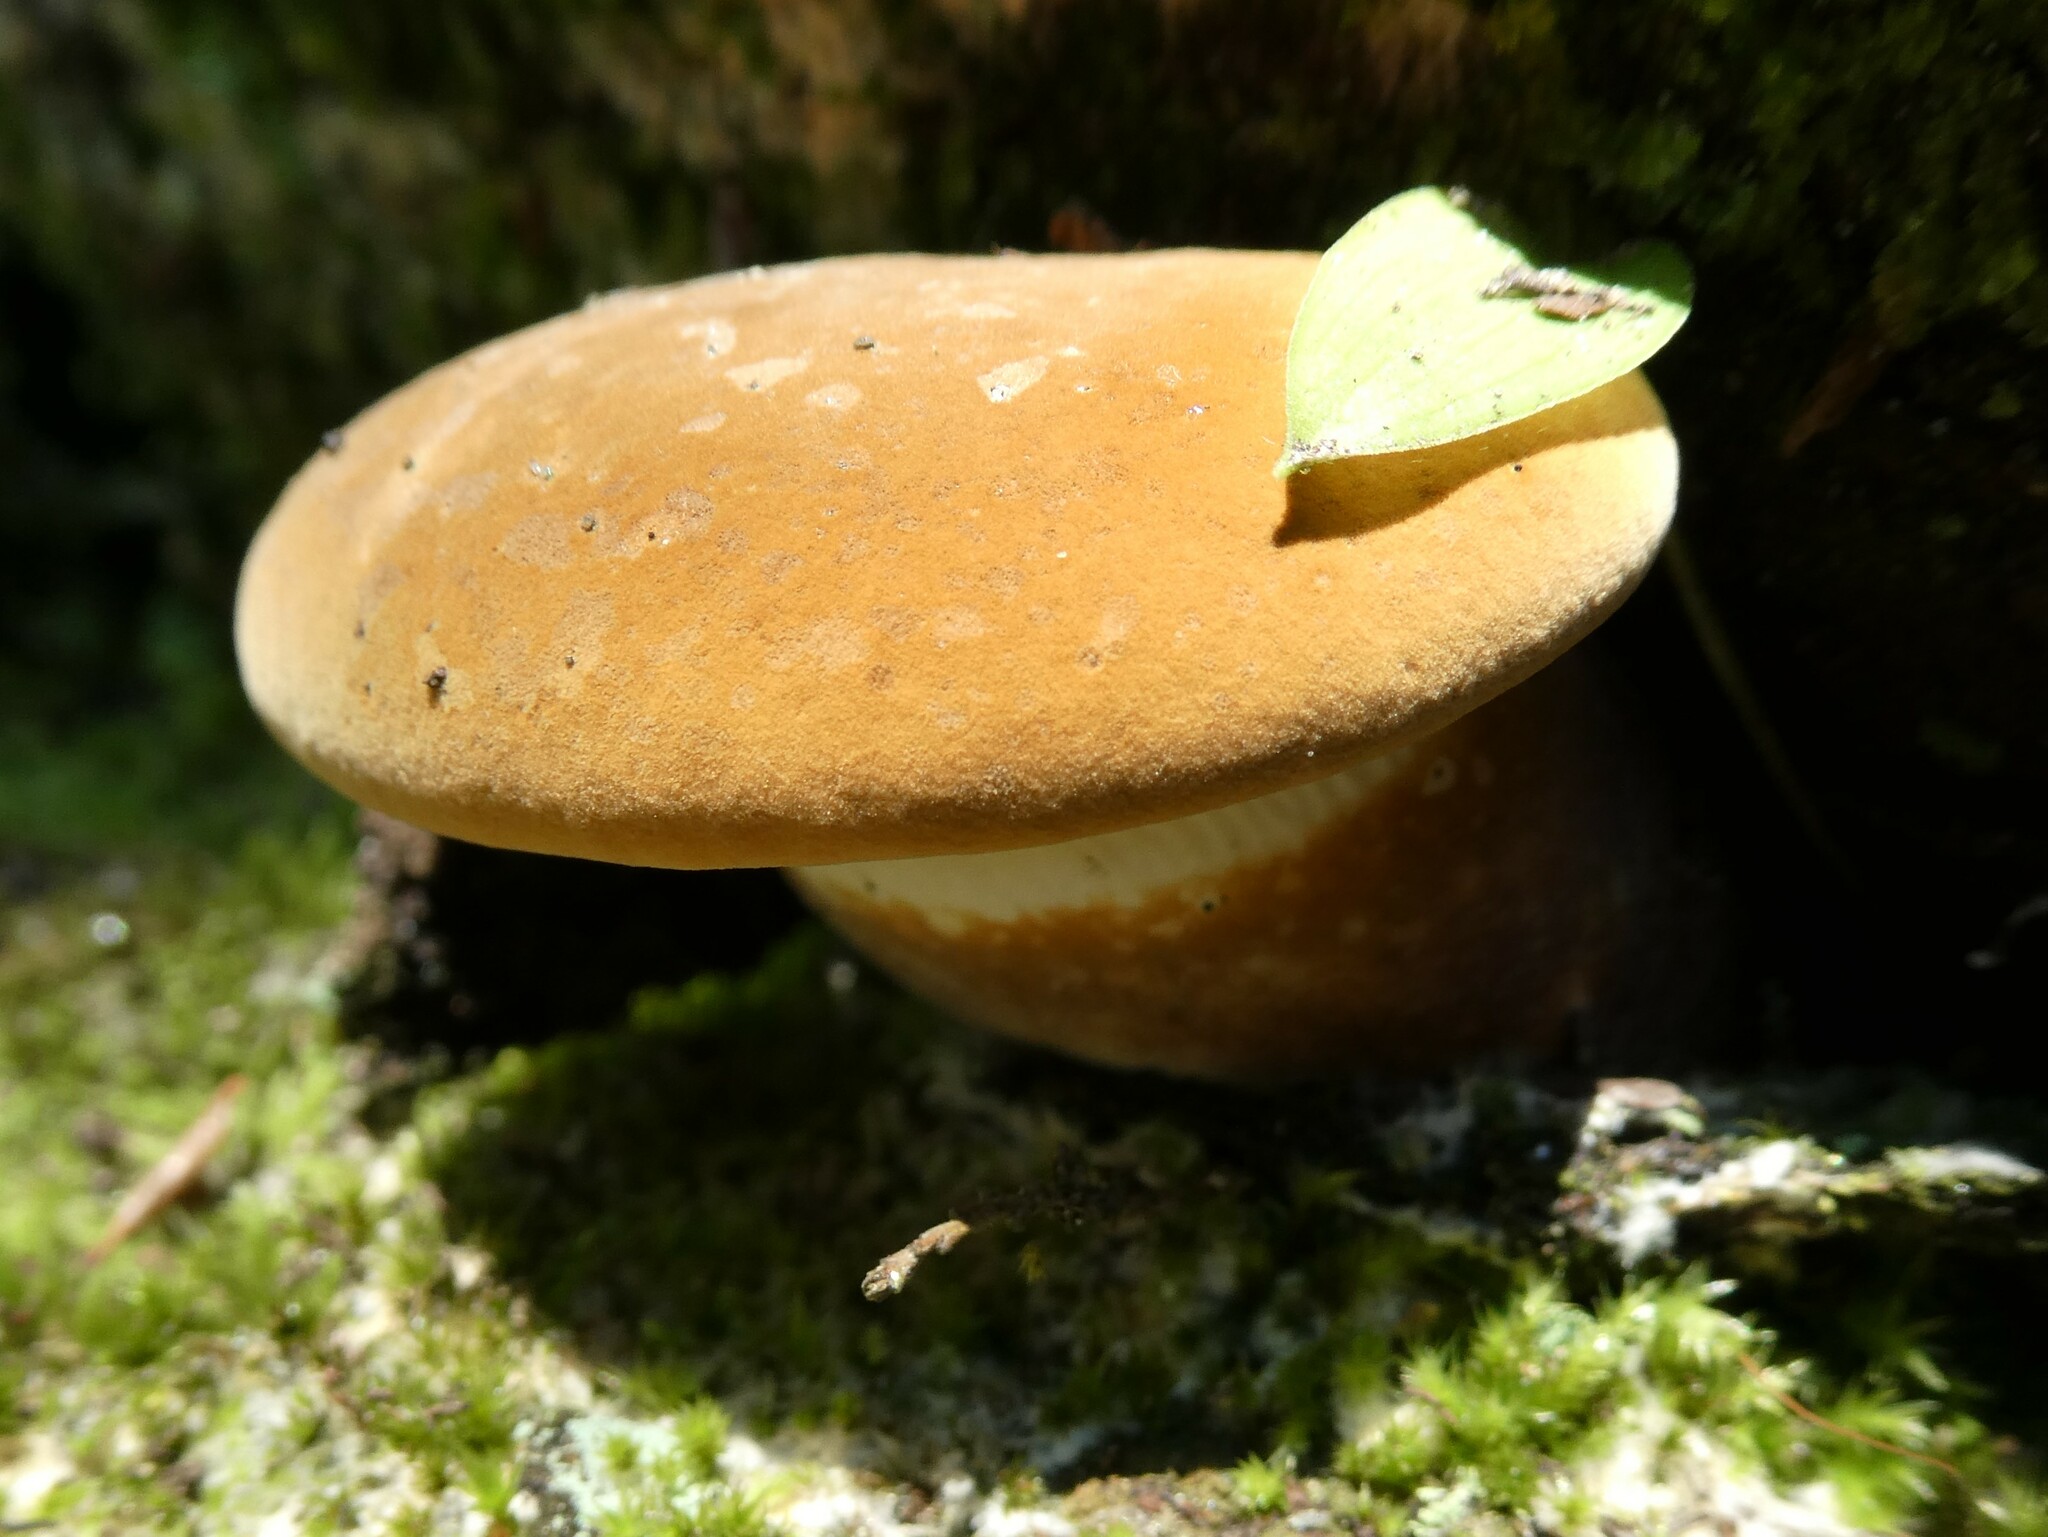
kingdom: Fungi
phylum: Basidiomycota
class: Agaricomycetes
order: Boletales
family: Tapinellaceae
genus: Tapinella
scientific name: Tapinella atrotomentosa
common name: Velvet rollrim
